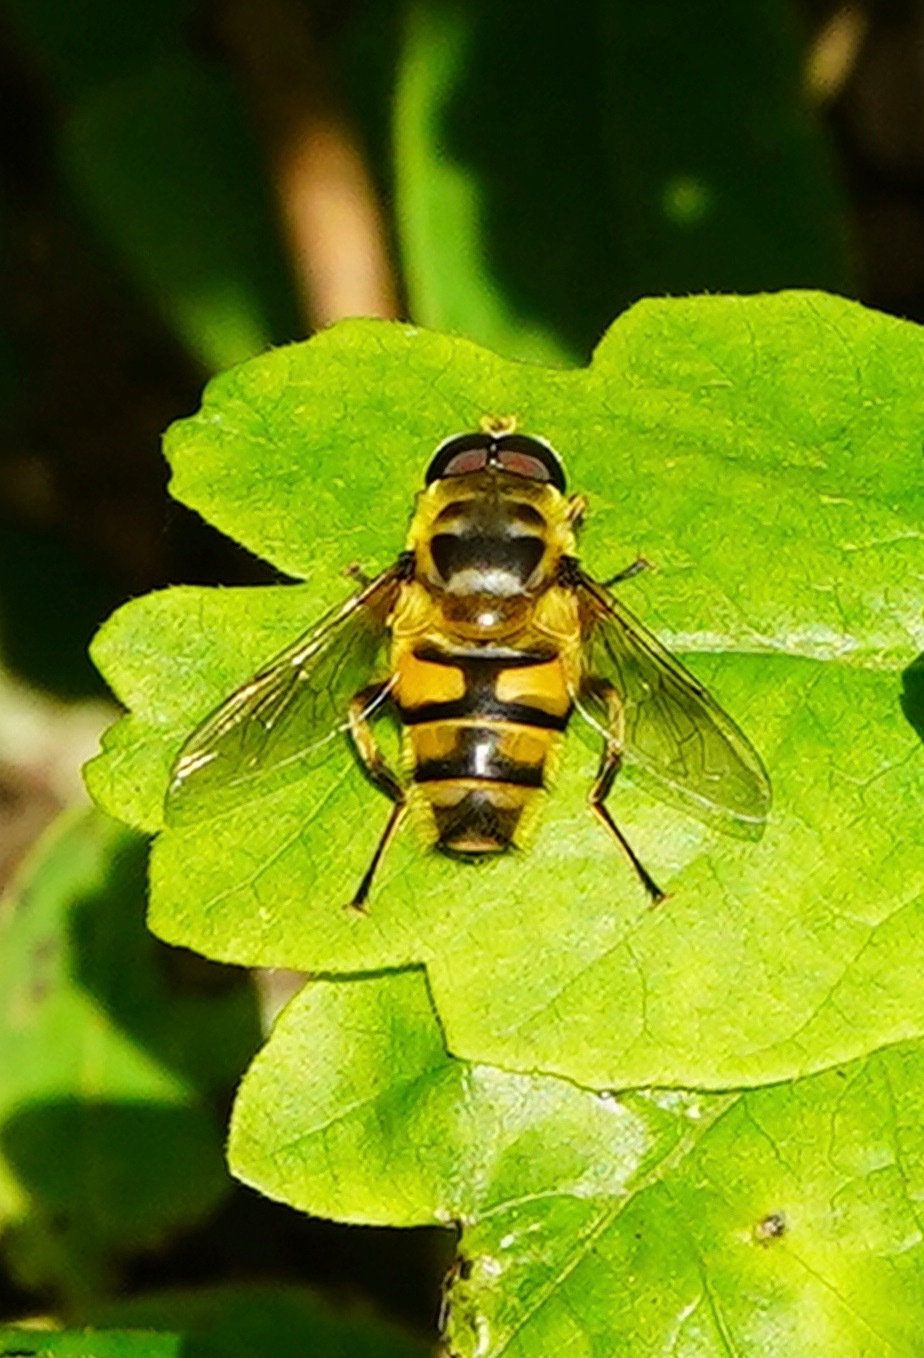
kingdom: Animalia
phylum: Arthropoda
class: Insecta
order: Diptera
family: Syrphidae
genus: Myathropa
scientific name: Myathropa florea
